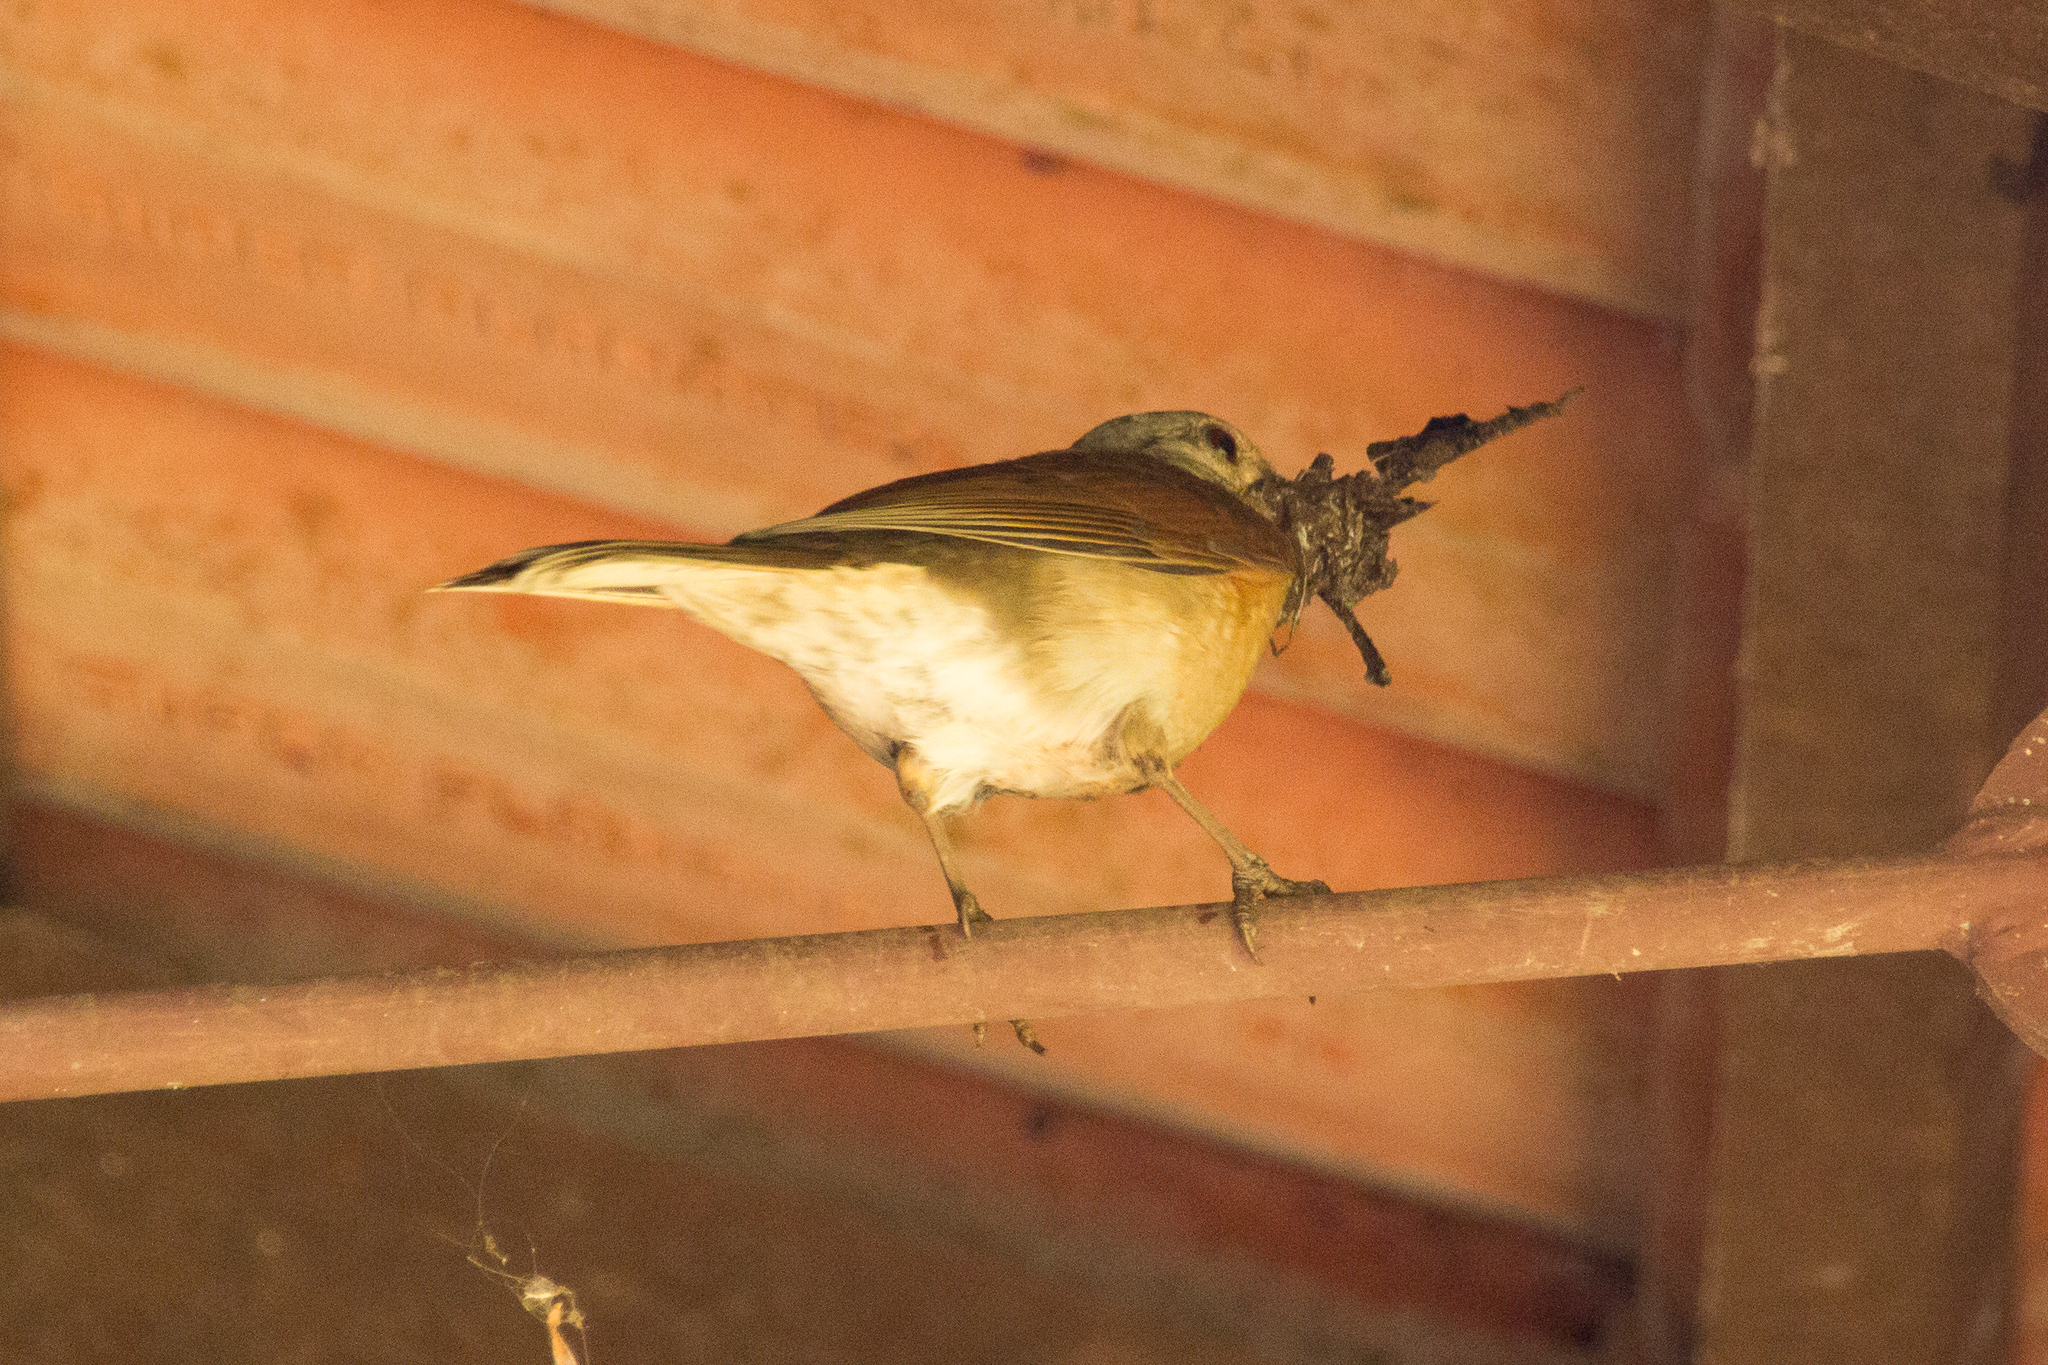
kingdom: Animalia
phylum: Chordata
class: Aves
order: Passeriformes
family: Turdidae
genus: Turdus
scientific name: Turdus leucomelas
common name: Pale-breasted thrush
